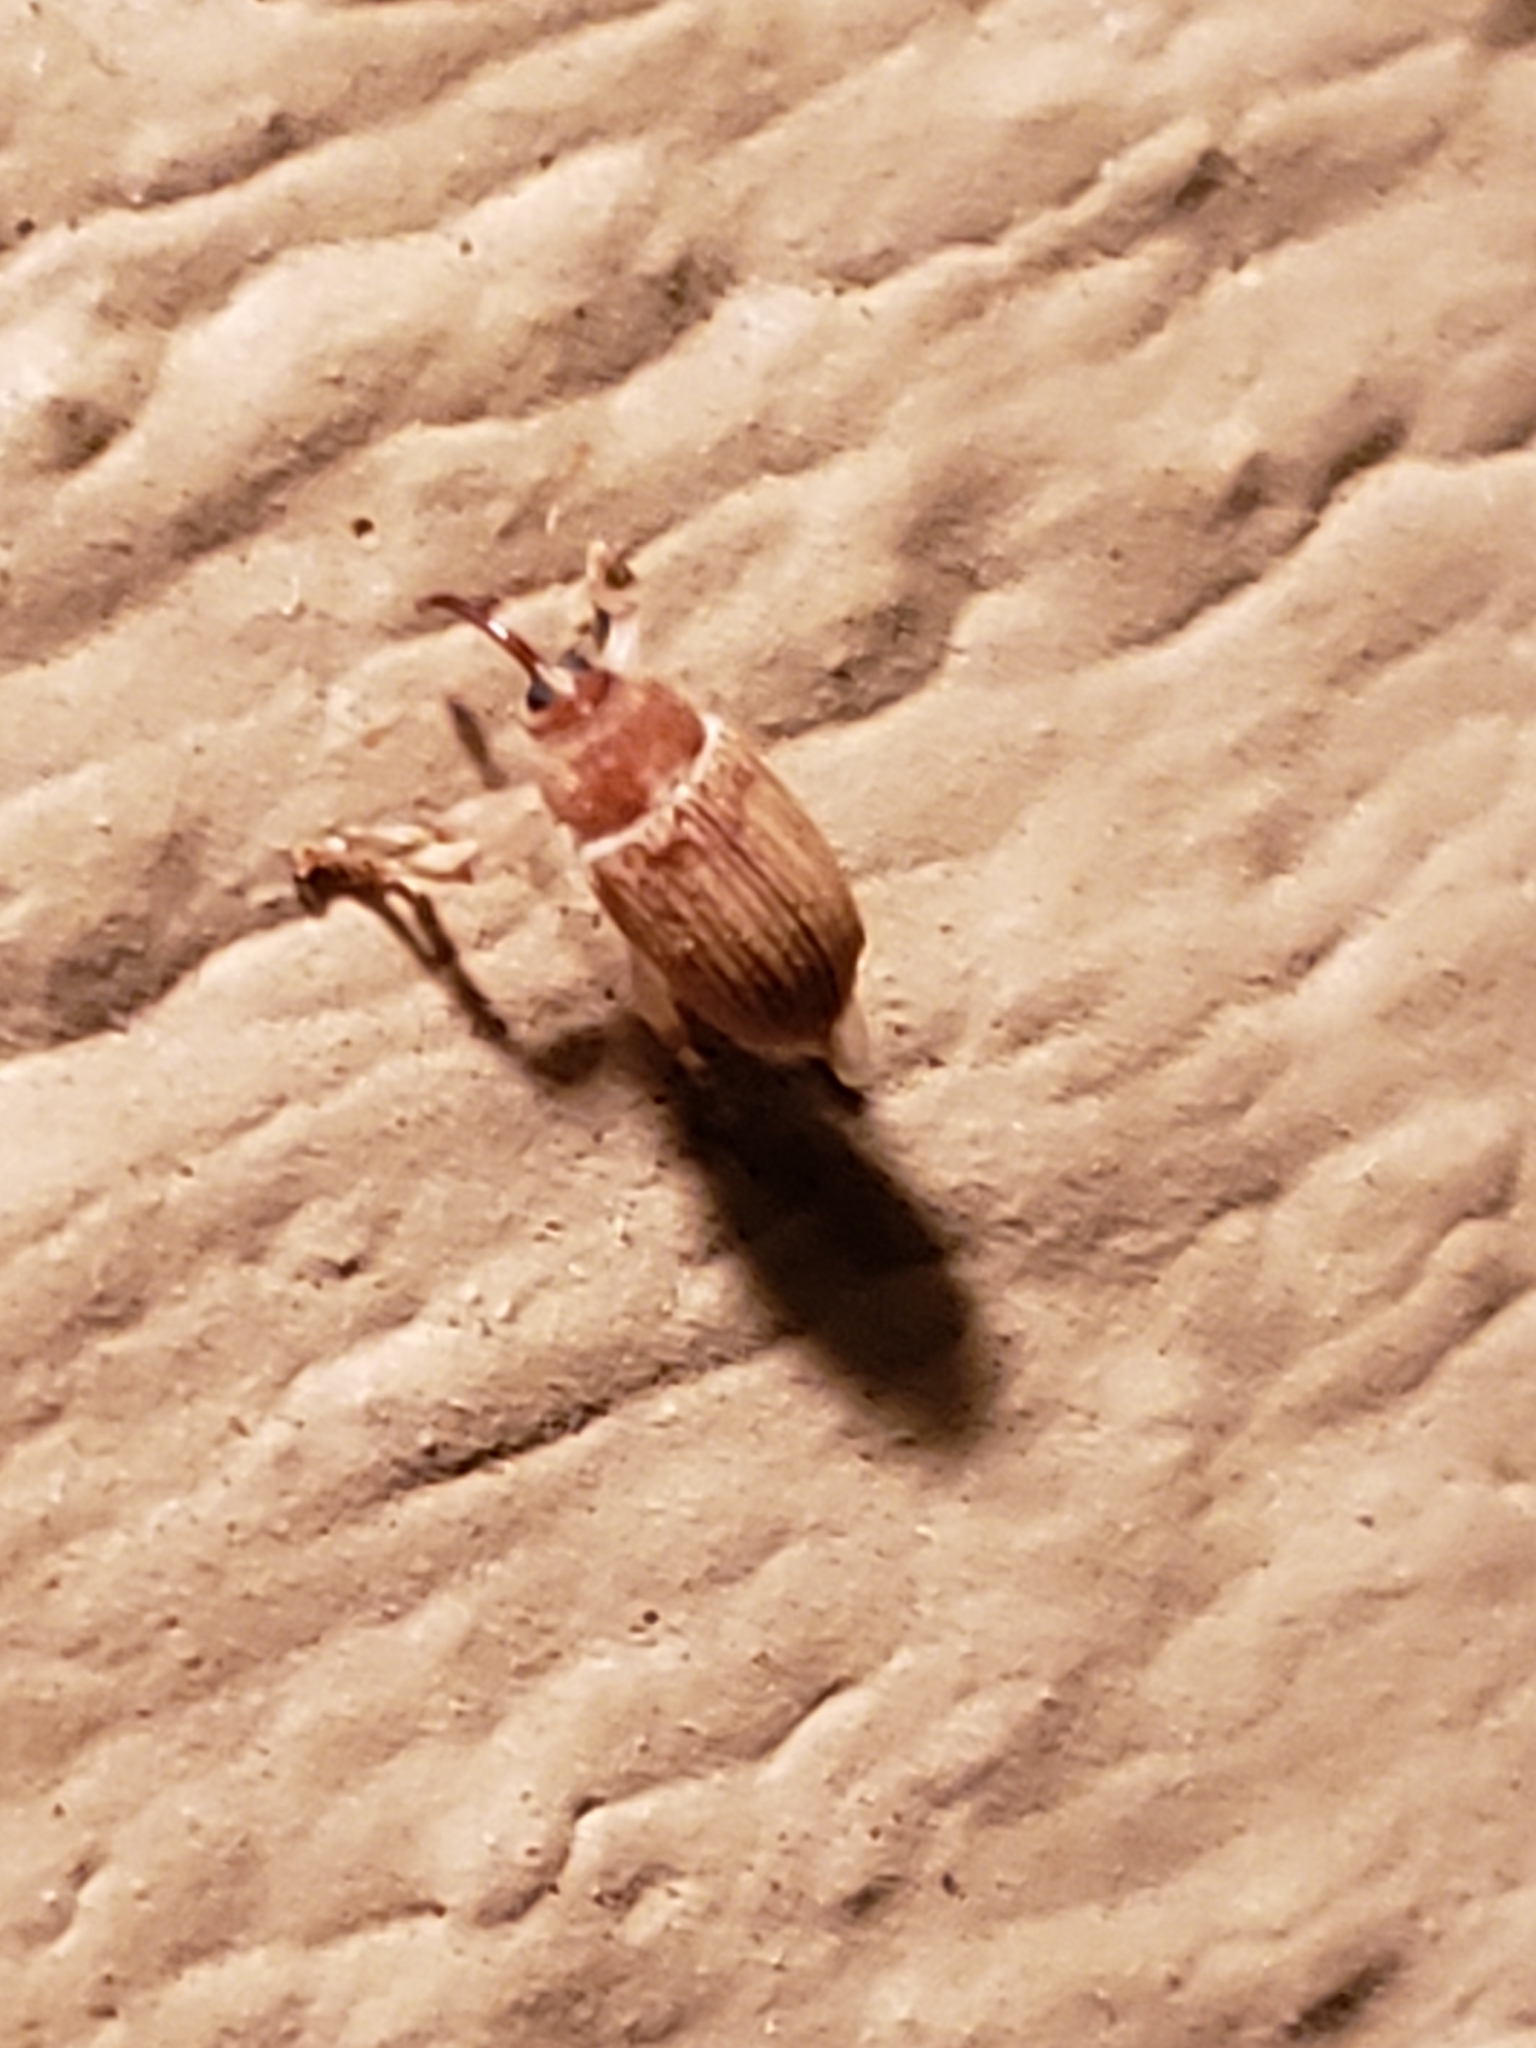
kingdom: Animalia
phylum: Arthropoda
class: Insecta
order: Coleoptera
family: Curculionidae
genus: Lignyodes
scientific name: Lignyodes helvolus
